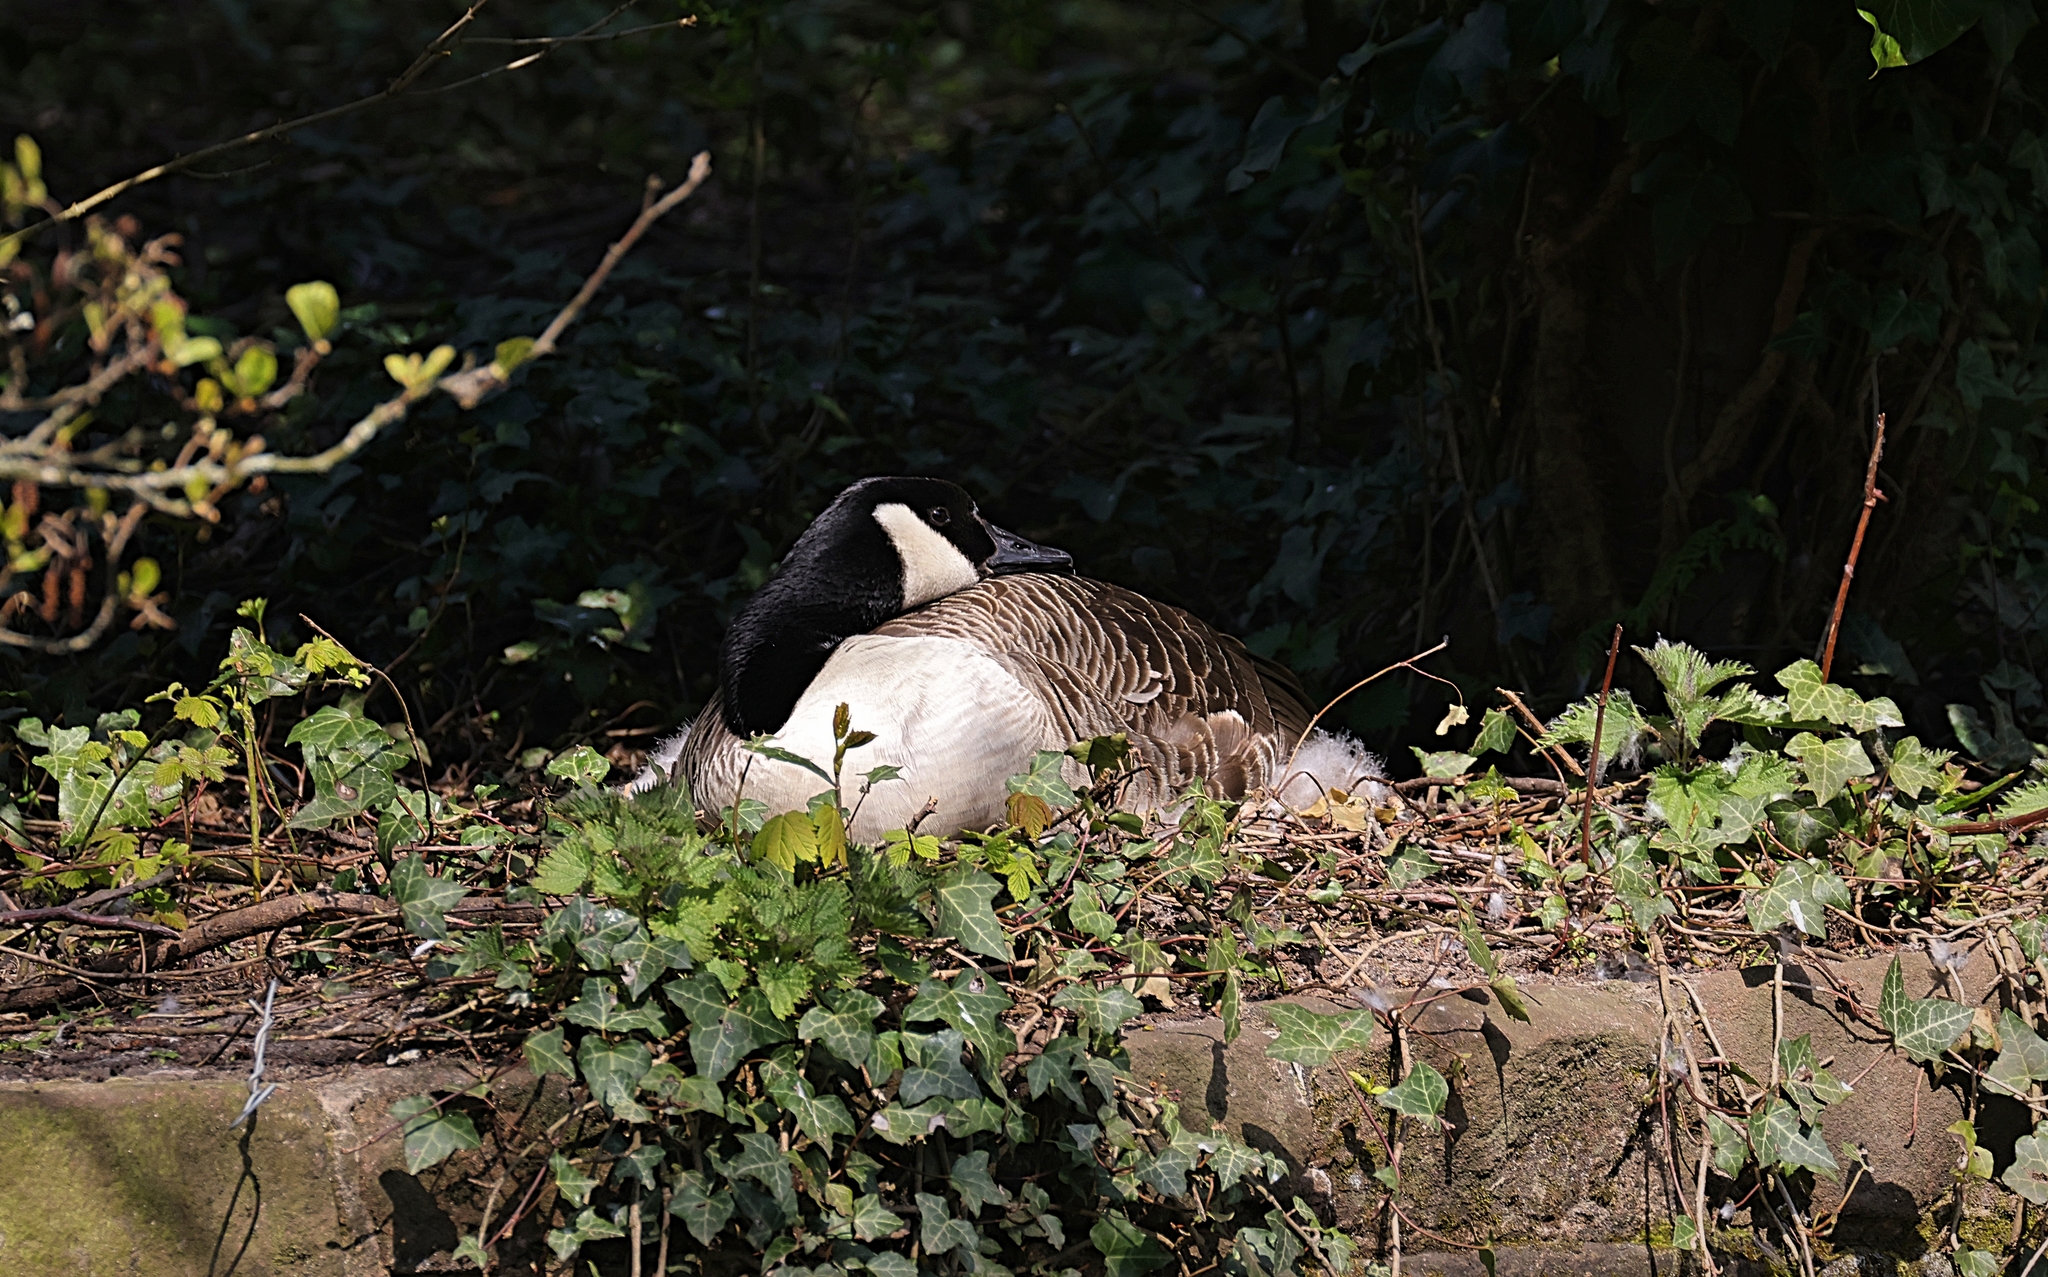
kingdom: Animalia
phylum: Chordata
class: Aves
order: Anseriformes
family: Anatidae
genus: Branta
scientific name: Branta canadensis
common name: Canada goose
